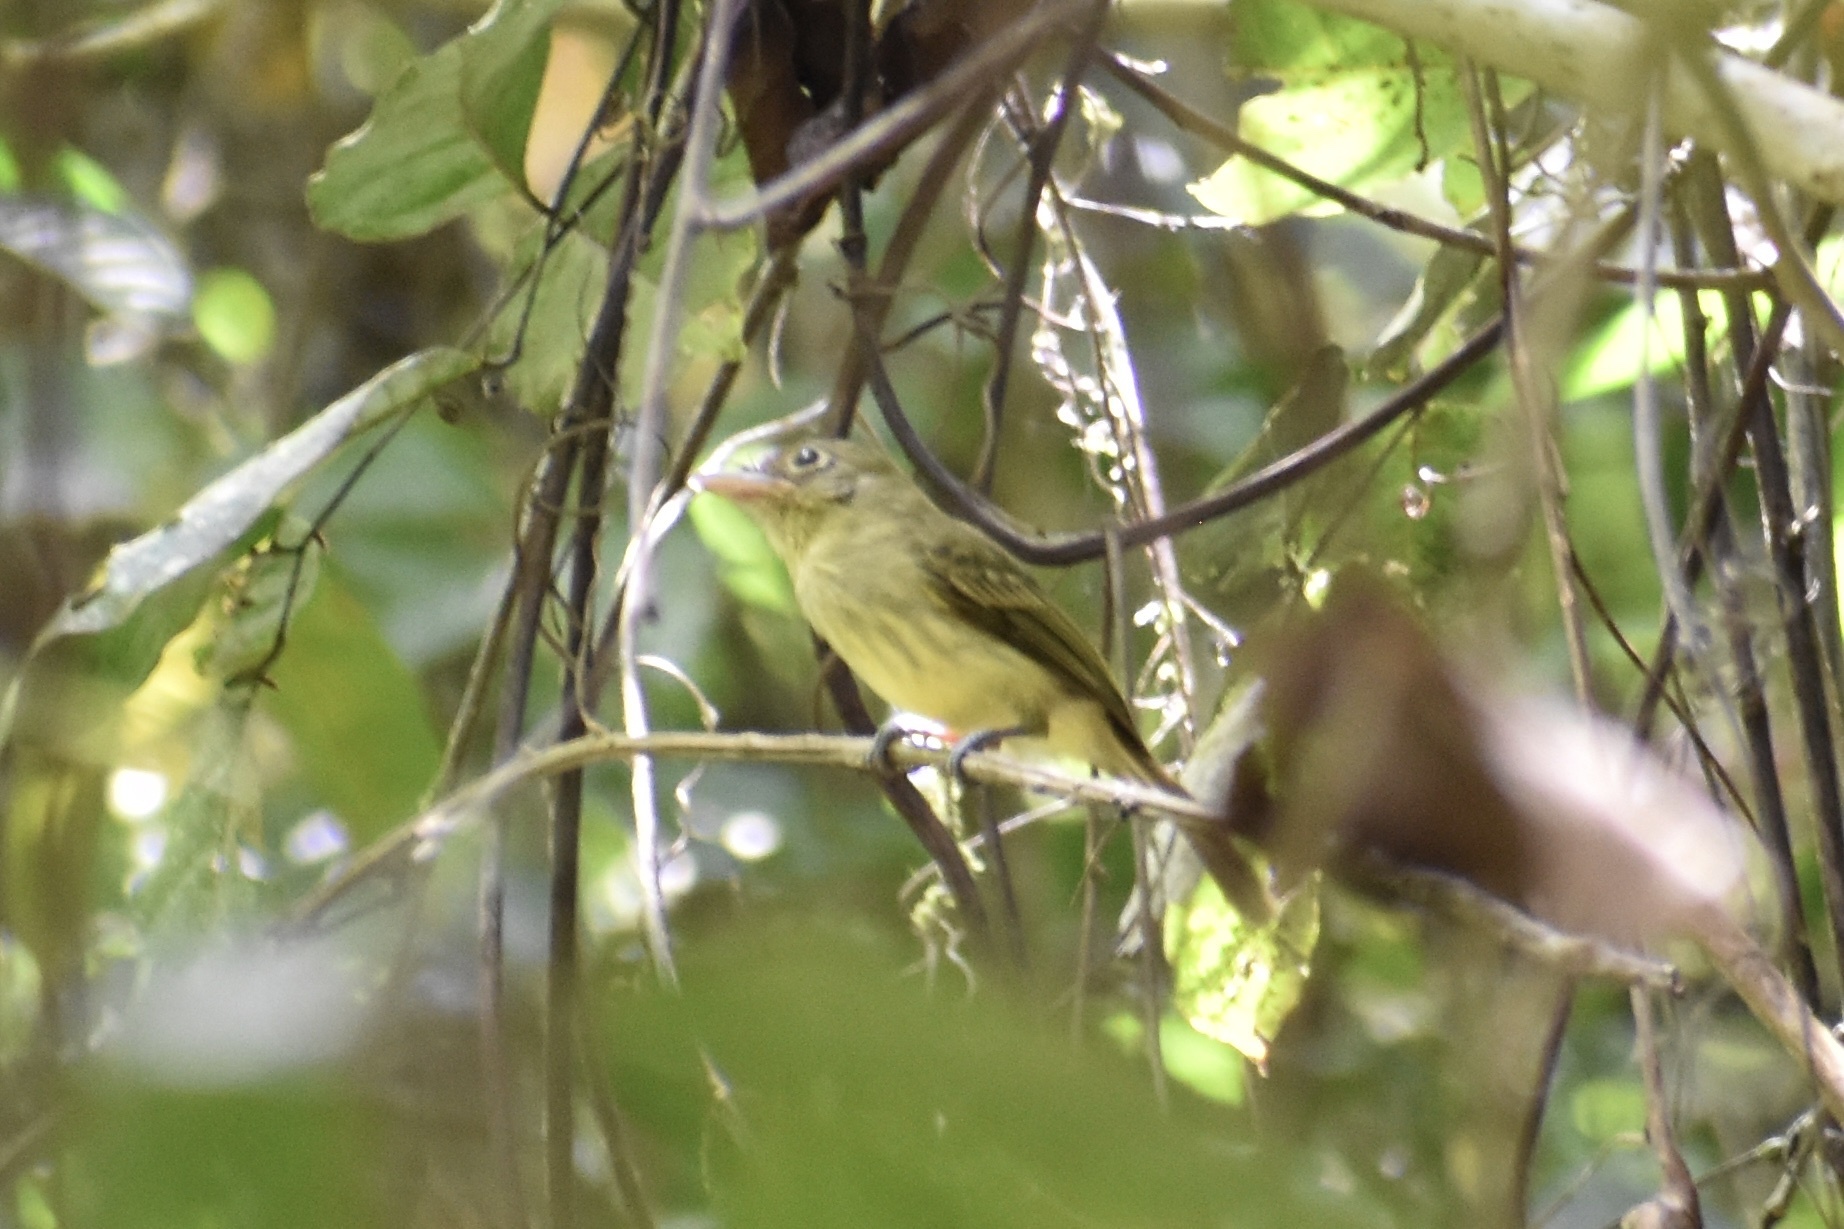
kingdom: Animalia
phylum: Chordata
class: Aves
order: Passeriformes
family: Tyrannidae
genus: Rhynchocyclus
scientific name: Rhynchocyclus olivaceus
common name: Olivaceous flatbill
